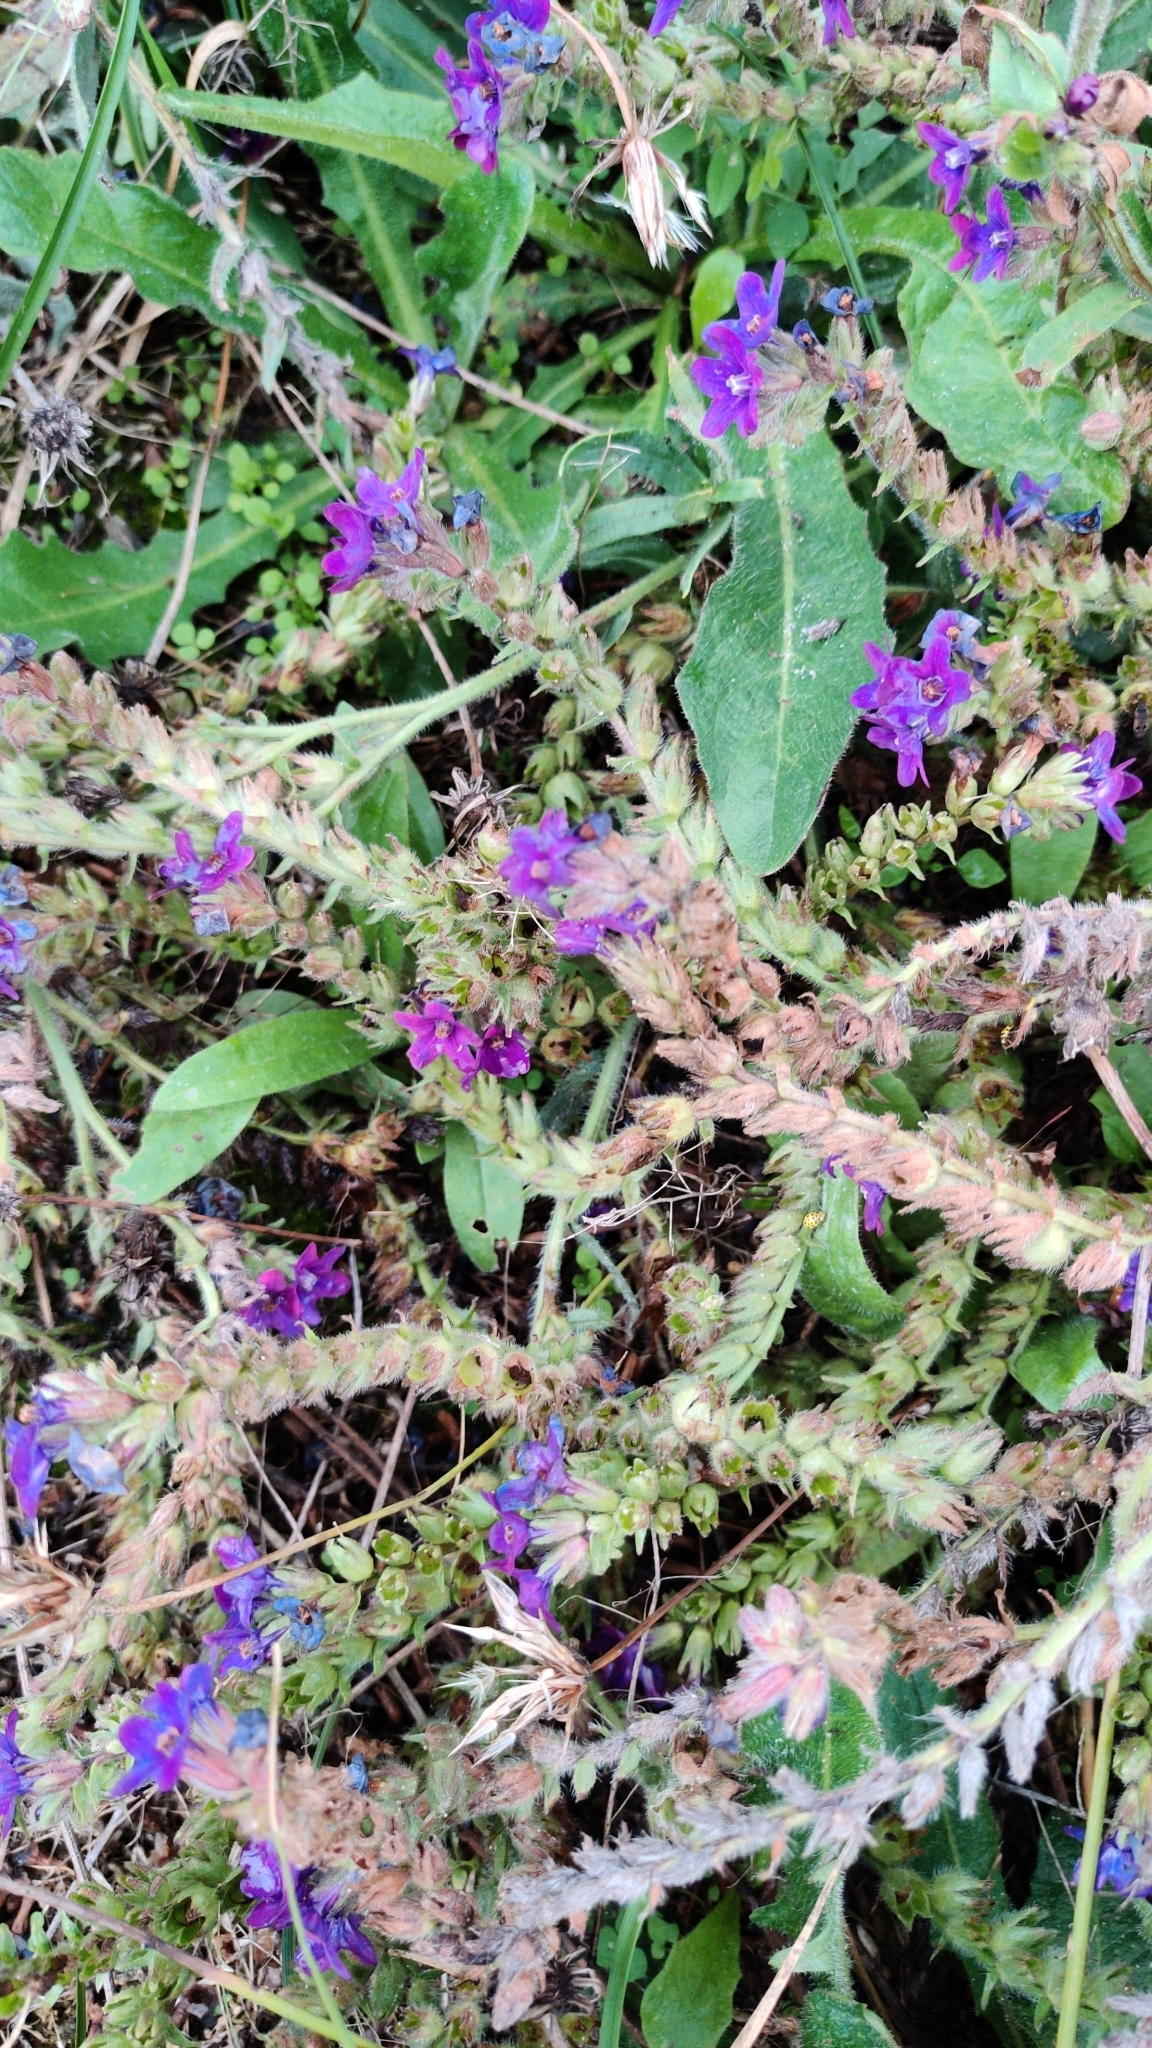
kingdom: Plantae
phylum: Tracheophyta
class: Magnoliopsida
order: Boraginales
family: Boraginaceae
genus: Anchusa
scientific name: Anchusa officinalis
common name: Alkanet
